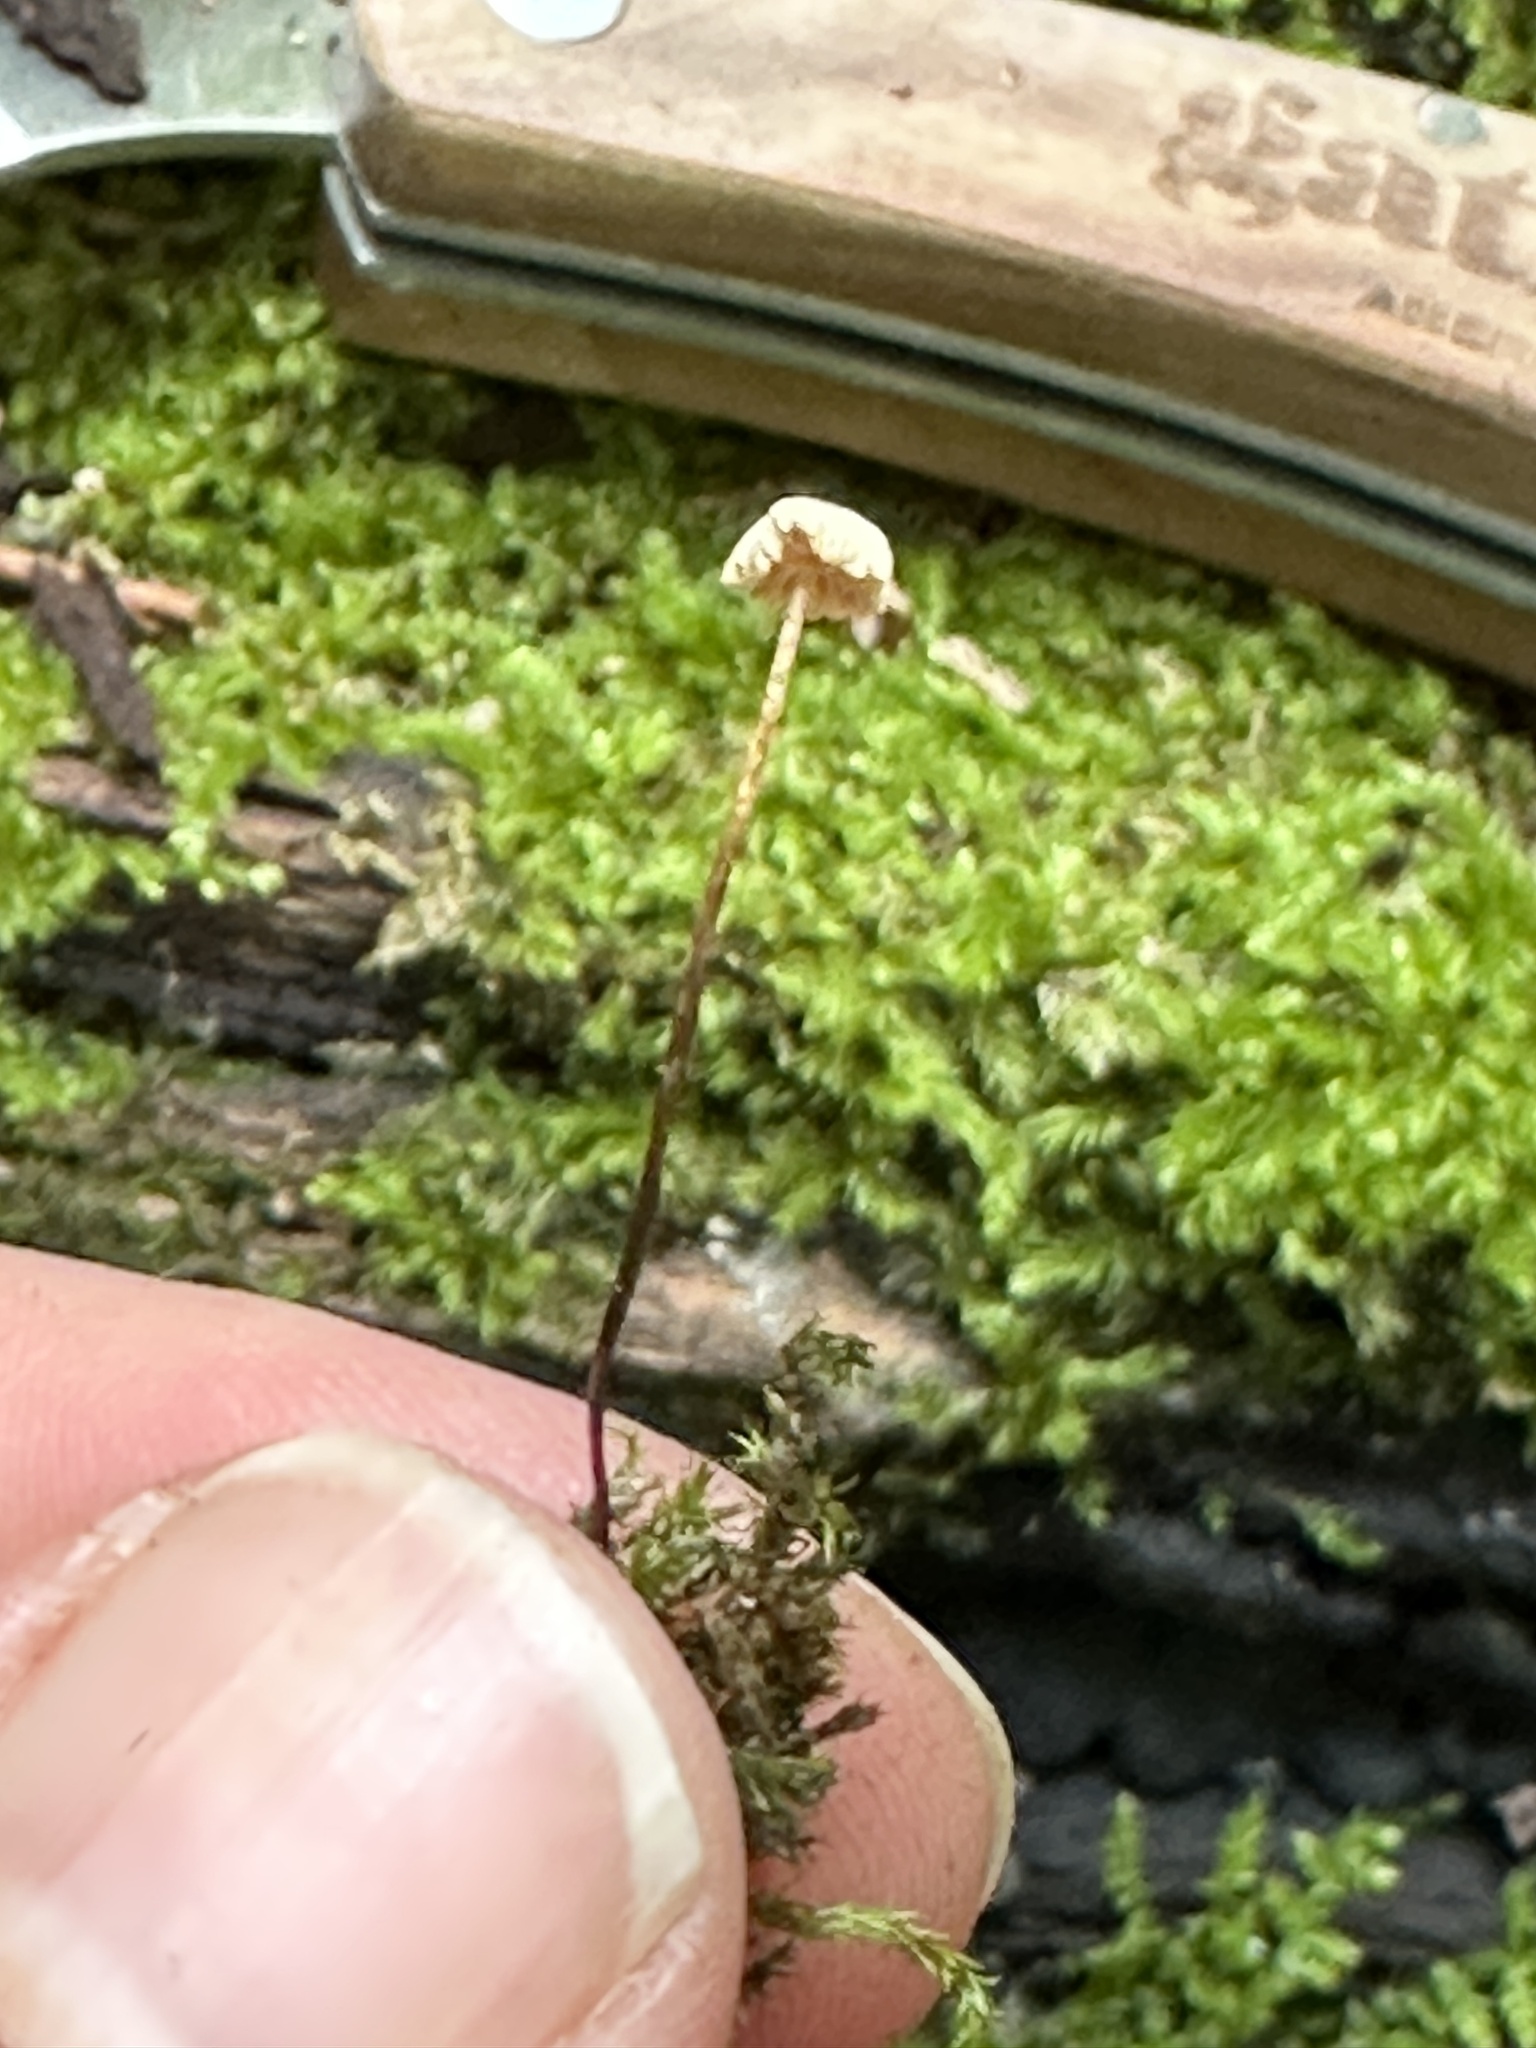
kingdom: Fungi
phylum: Basidiomycota
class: Agaricomycetes
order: Agaricales
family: Marasmiaceae
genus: Marasmius
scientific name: Marasmius rotula
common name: Collared parachute
